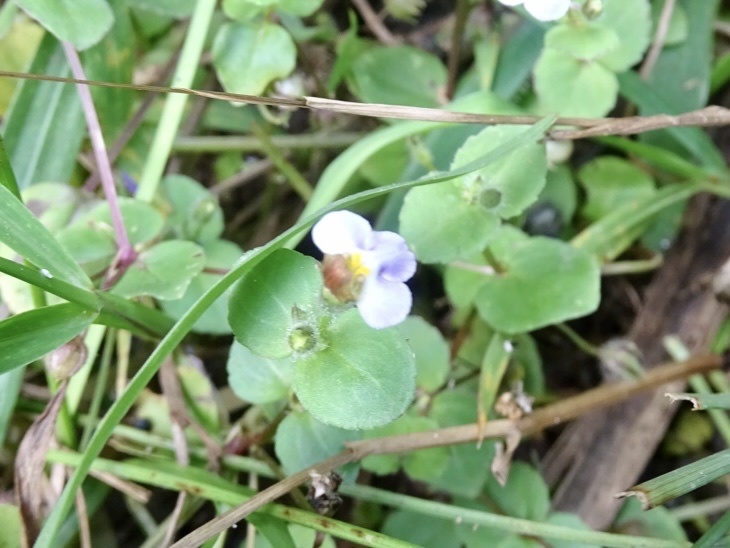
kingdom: Plantae
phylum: Tracheophyta
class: Magnoliopsida
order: Lamiales
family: Linderniaceae
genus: Yamazakia
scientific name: Yamazakia pusilla
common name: Tiny slitwort
